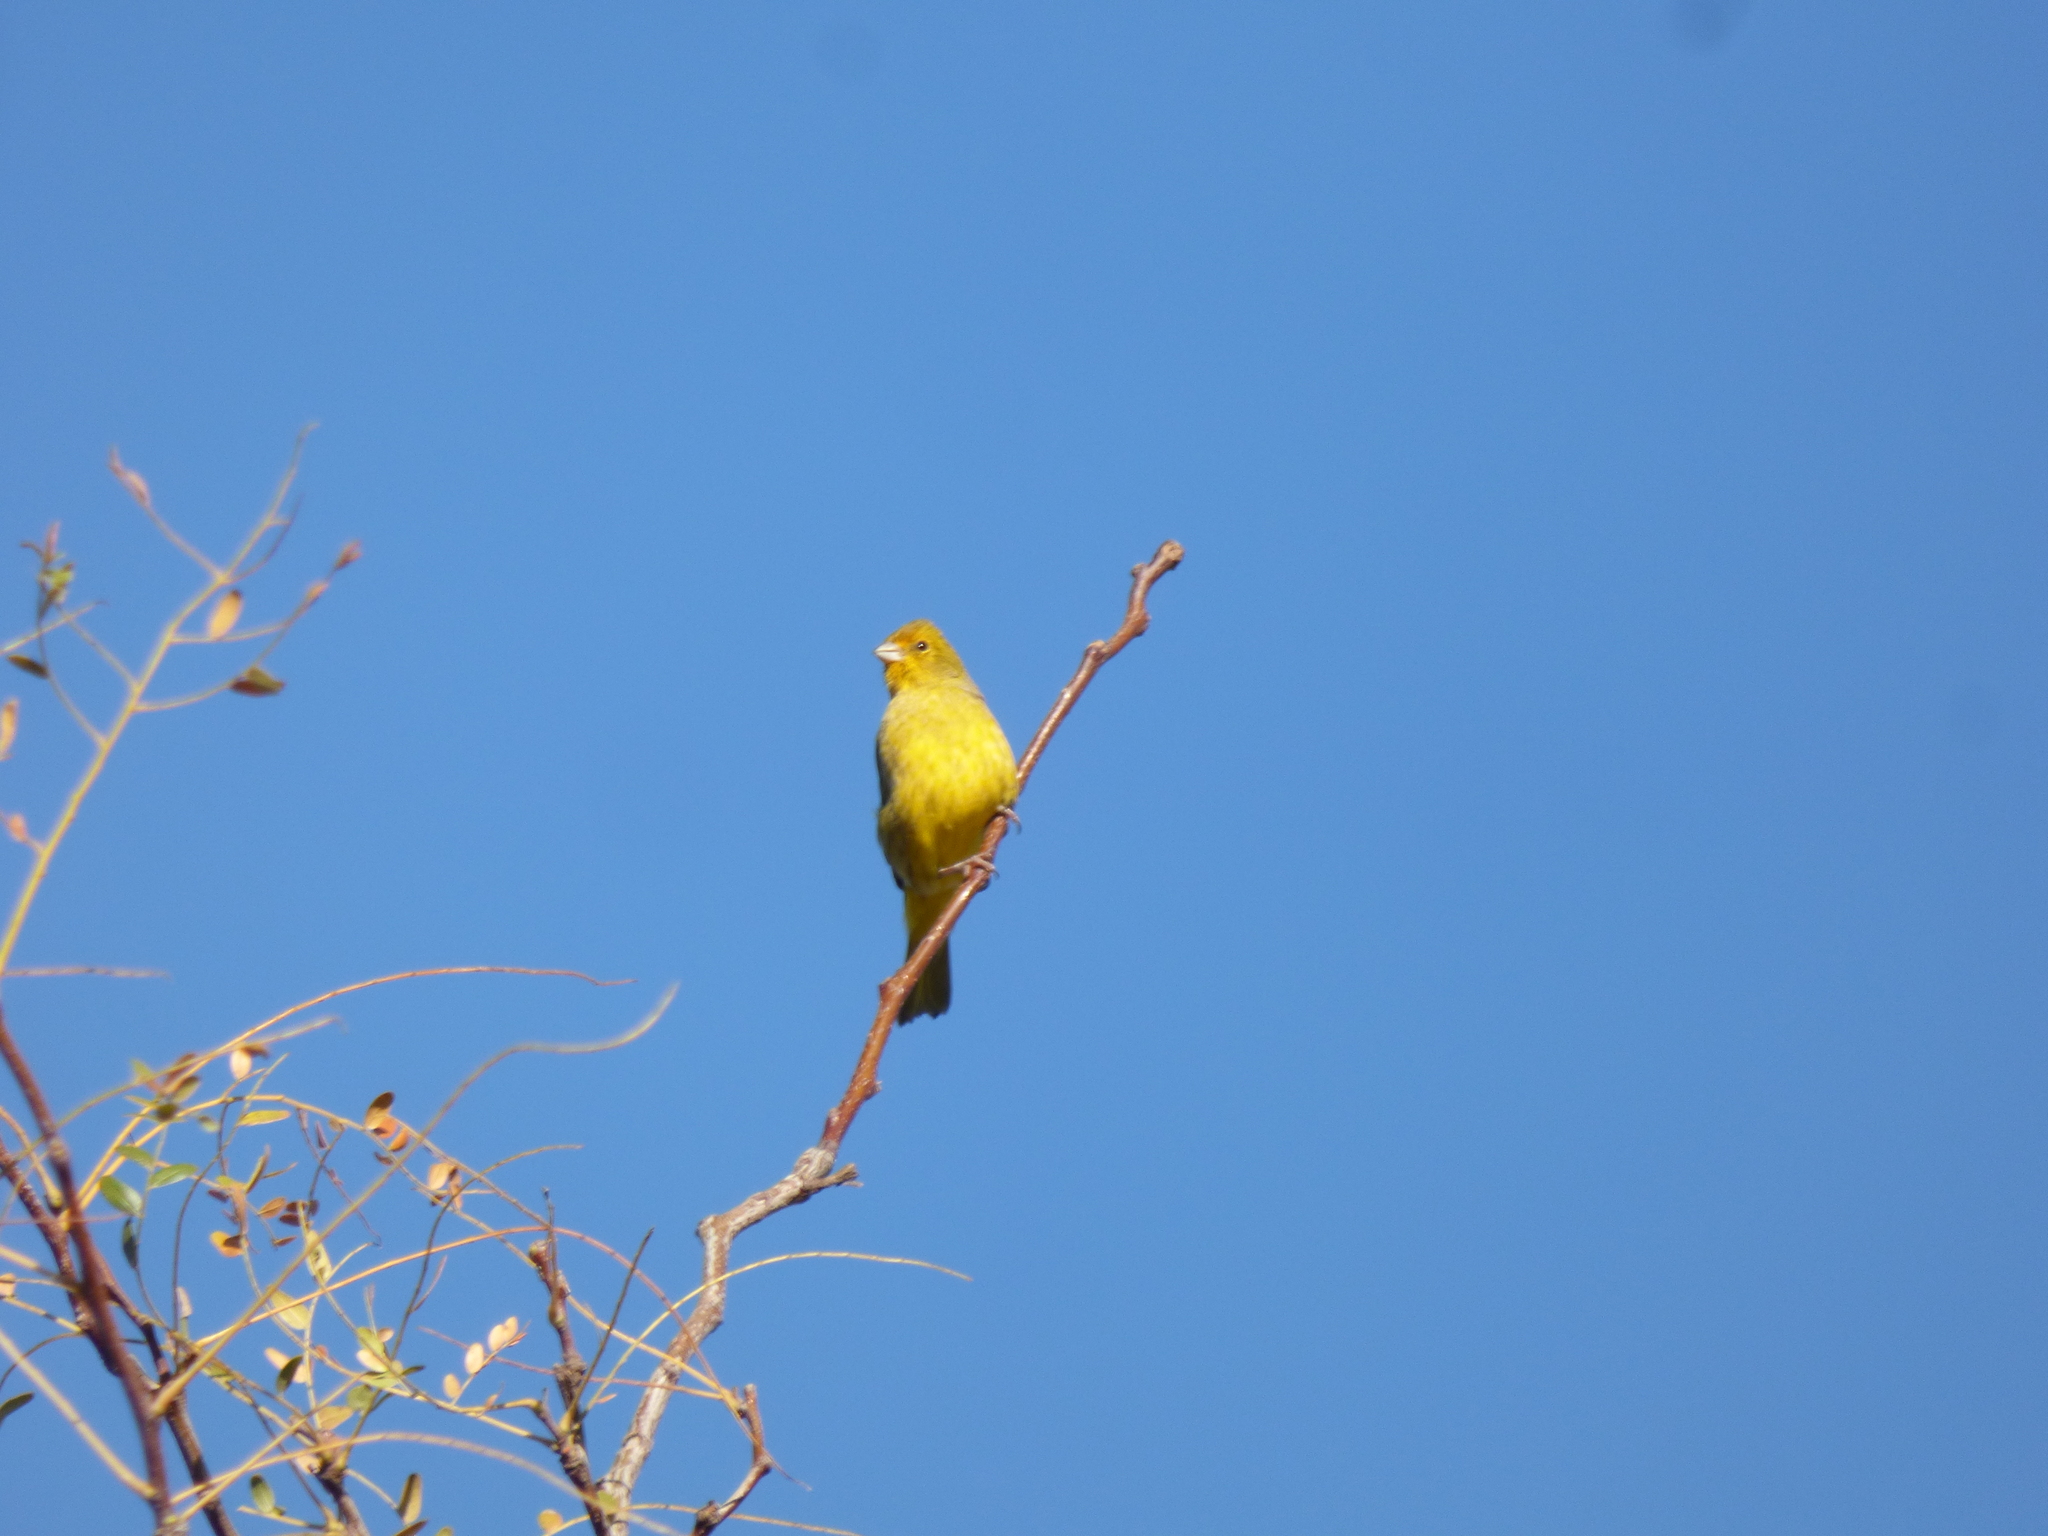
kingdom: Animalia
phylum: Chordata
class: Aves
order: Passeriformes
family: Thraupidae
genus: Sicalis
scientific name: Sicalis flaveola
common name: Saffron finch
